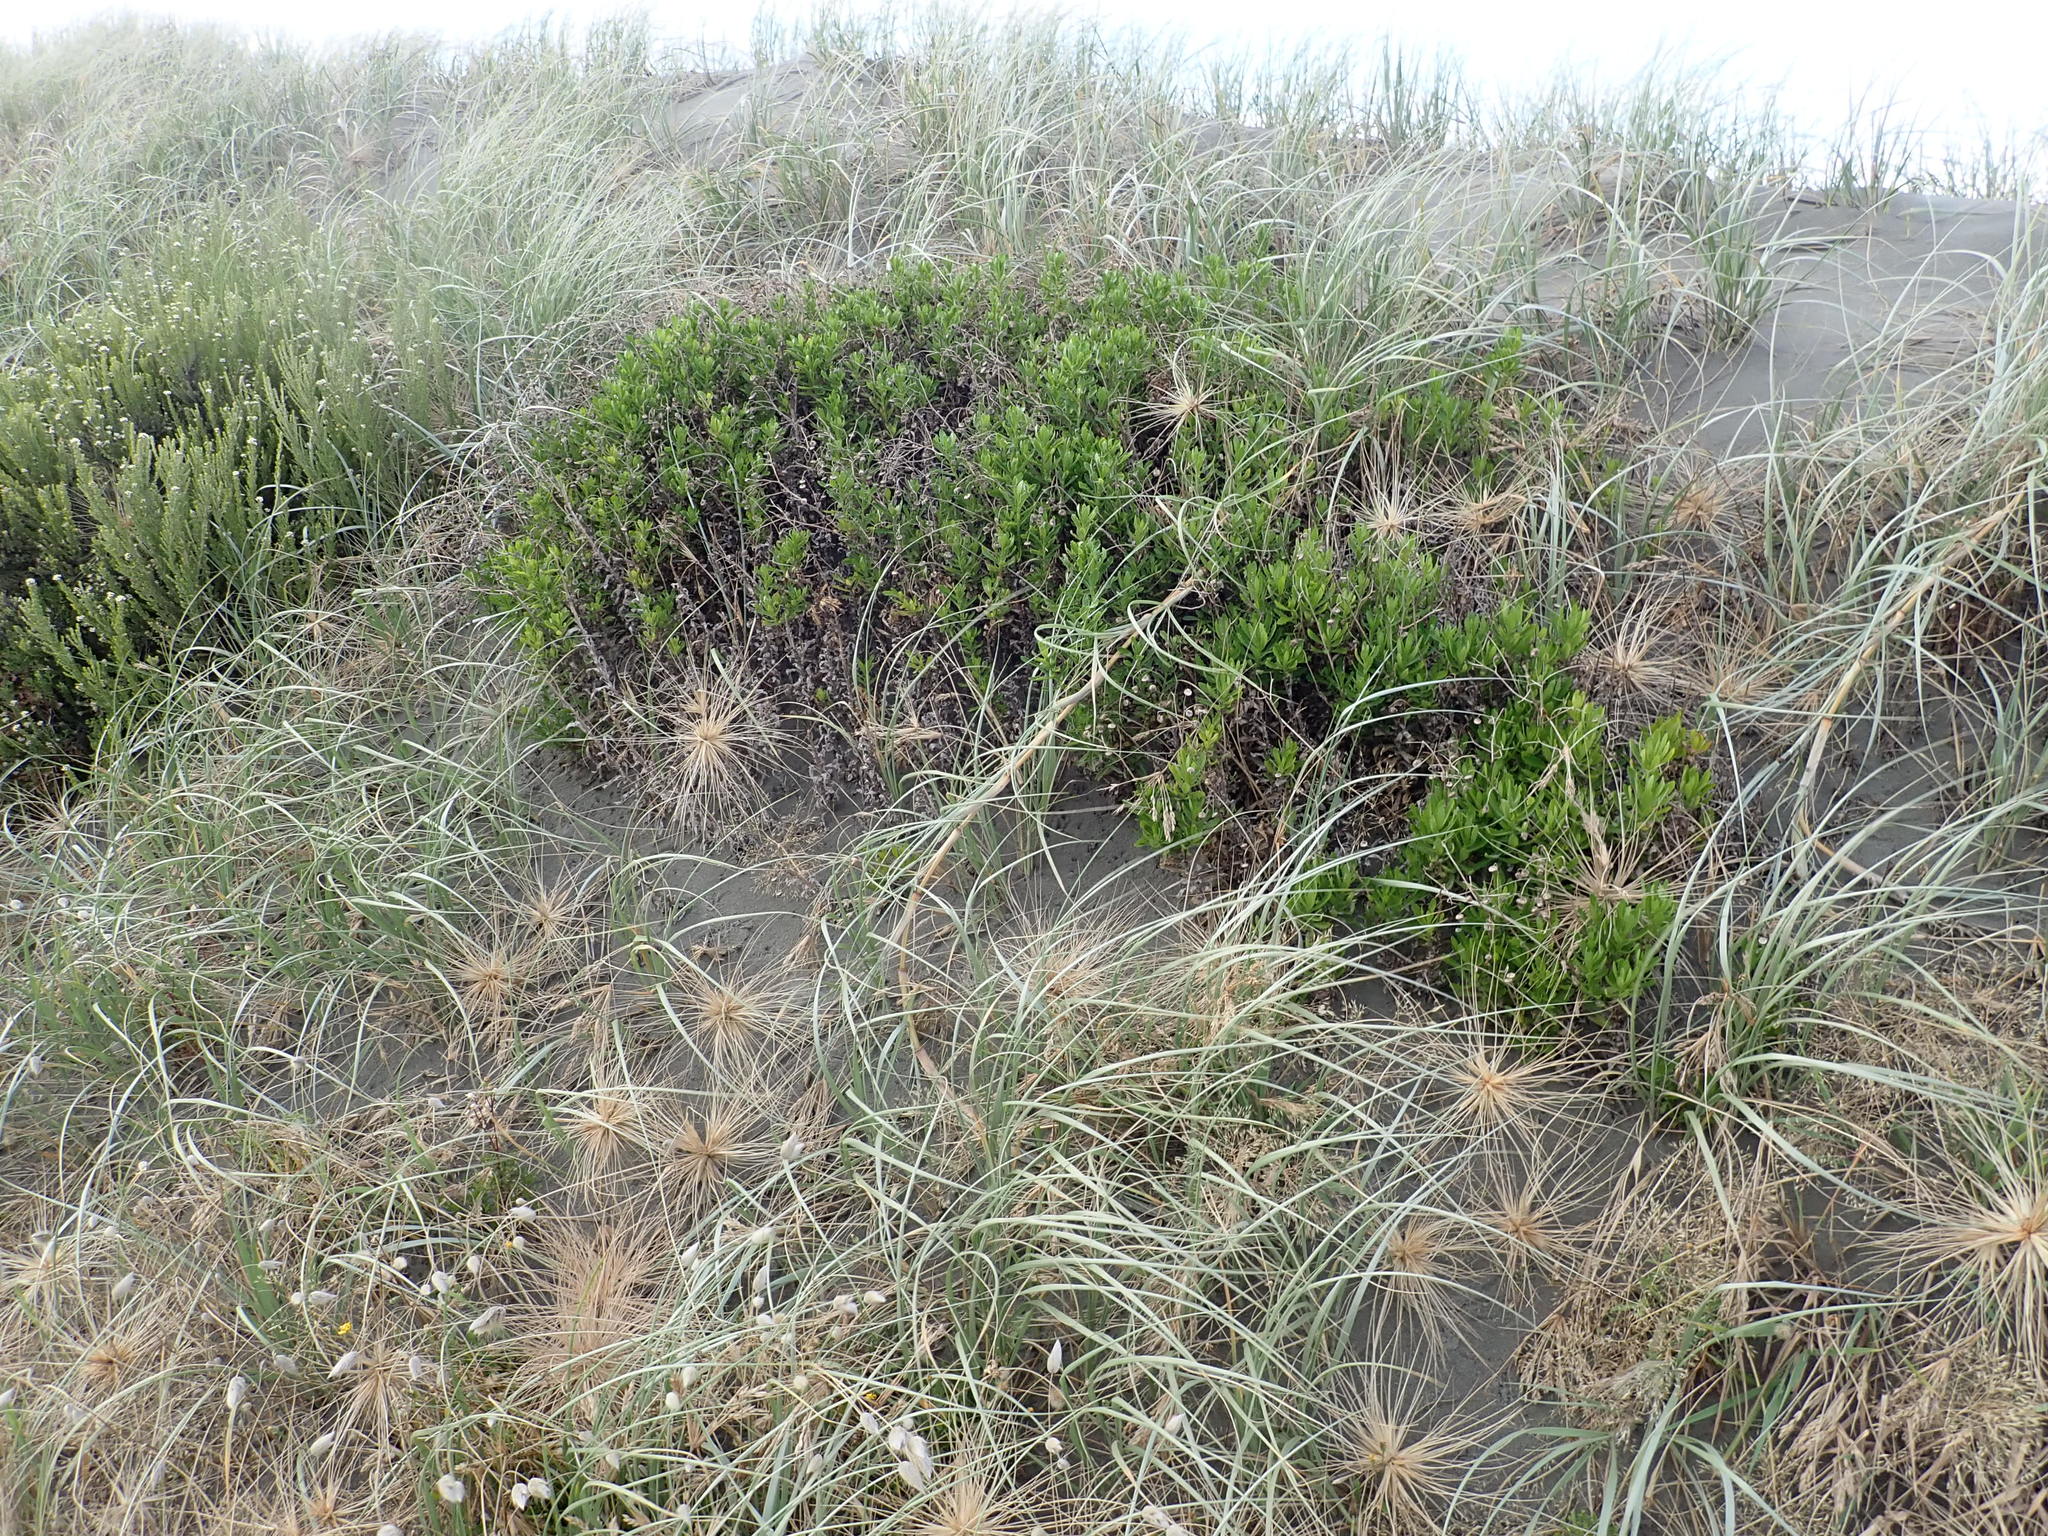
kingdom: Plantae
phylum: Tracheophyta
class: Magnoliopsida
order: Asterales
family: Asteraceae
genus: Senecio
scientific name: Senecio glastifolius
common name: Woad-leaved ragwort
